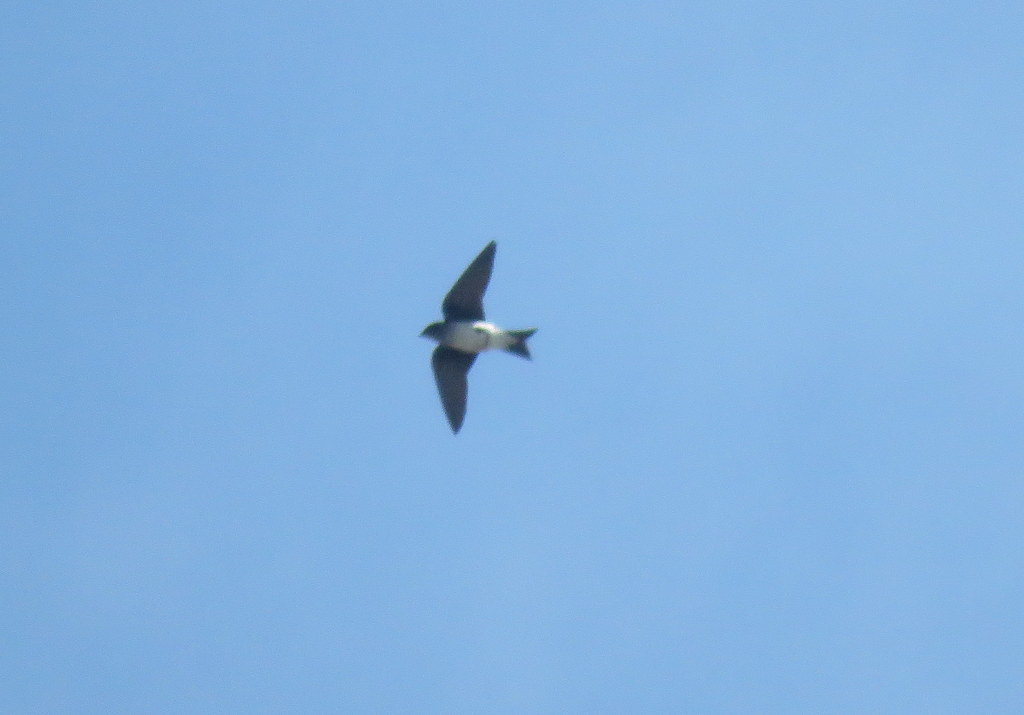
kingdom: Animalia
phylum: Chordata
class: Aves
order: Passeriformes
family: Hirundinidae
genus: Progne
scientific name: Progne chalybea
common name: Grey-breasted martin
